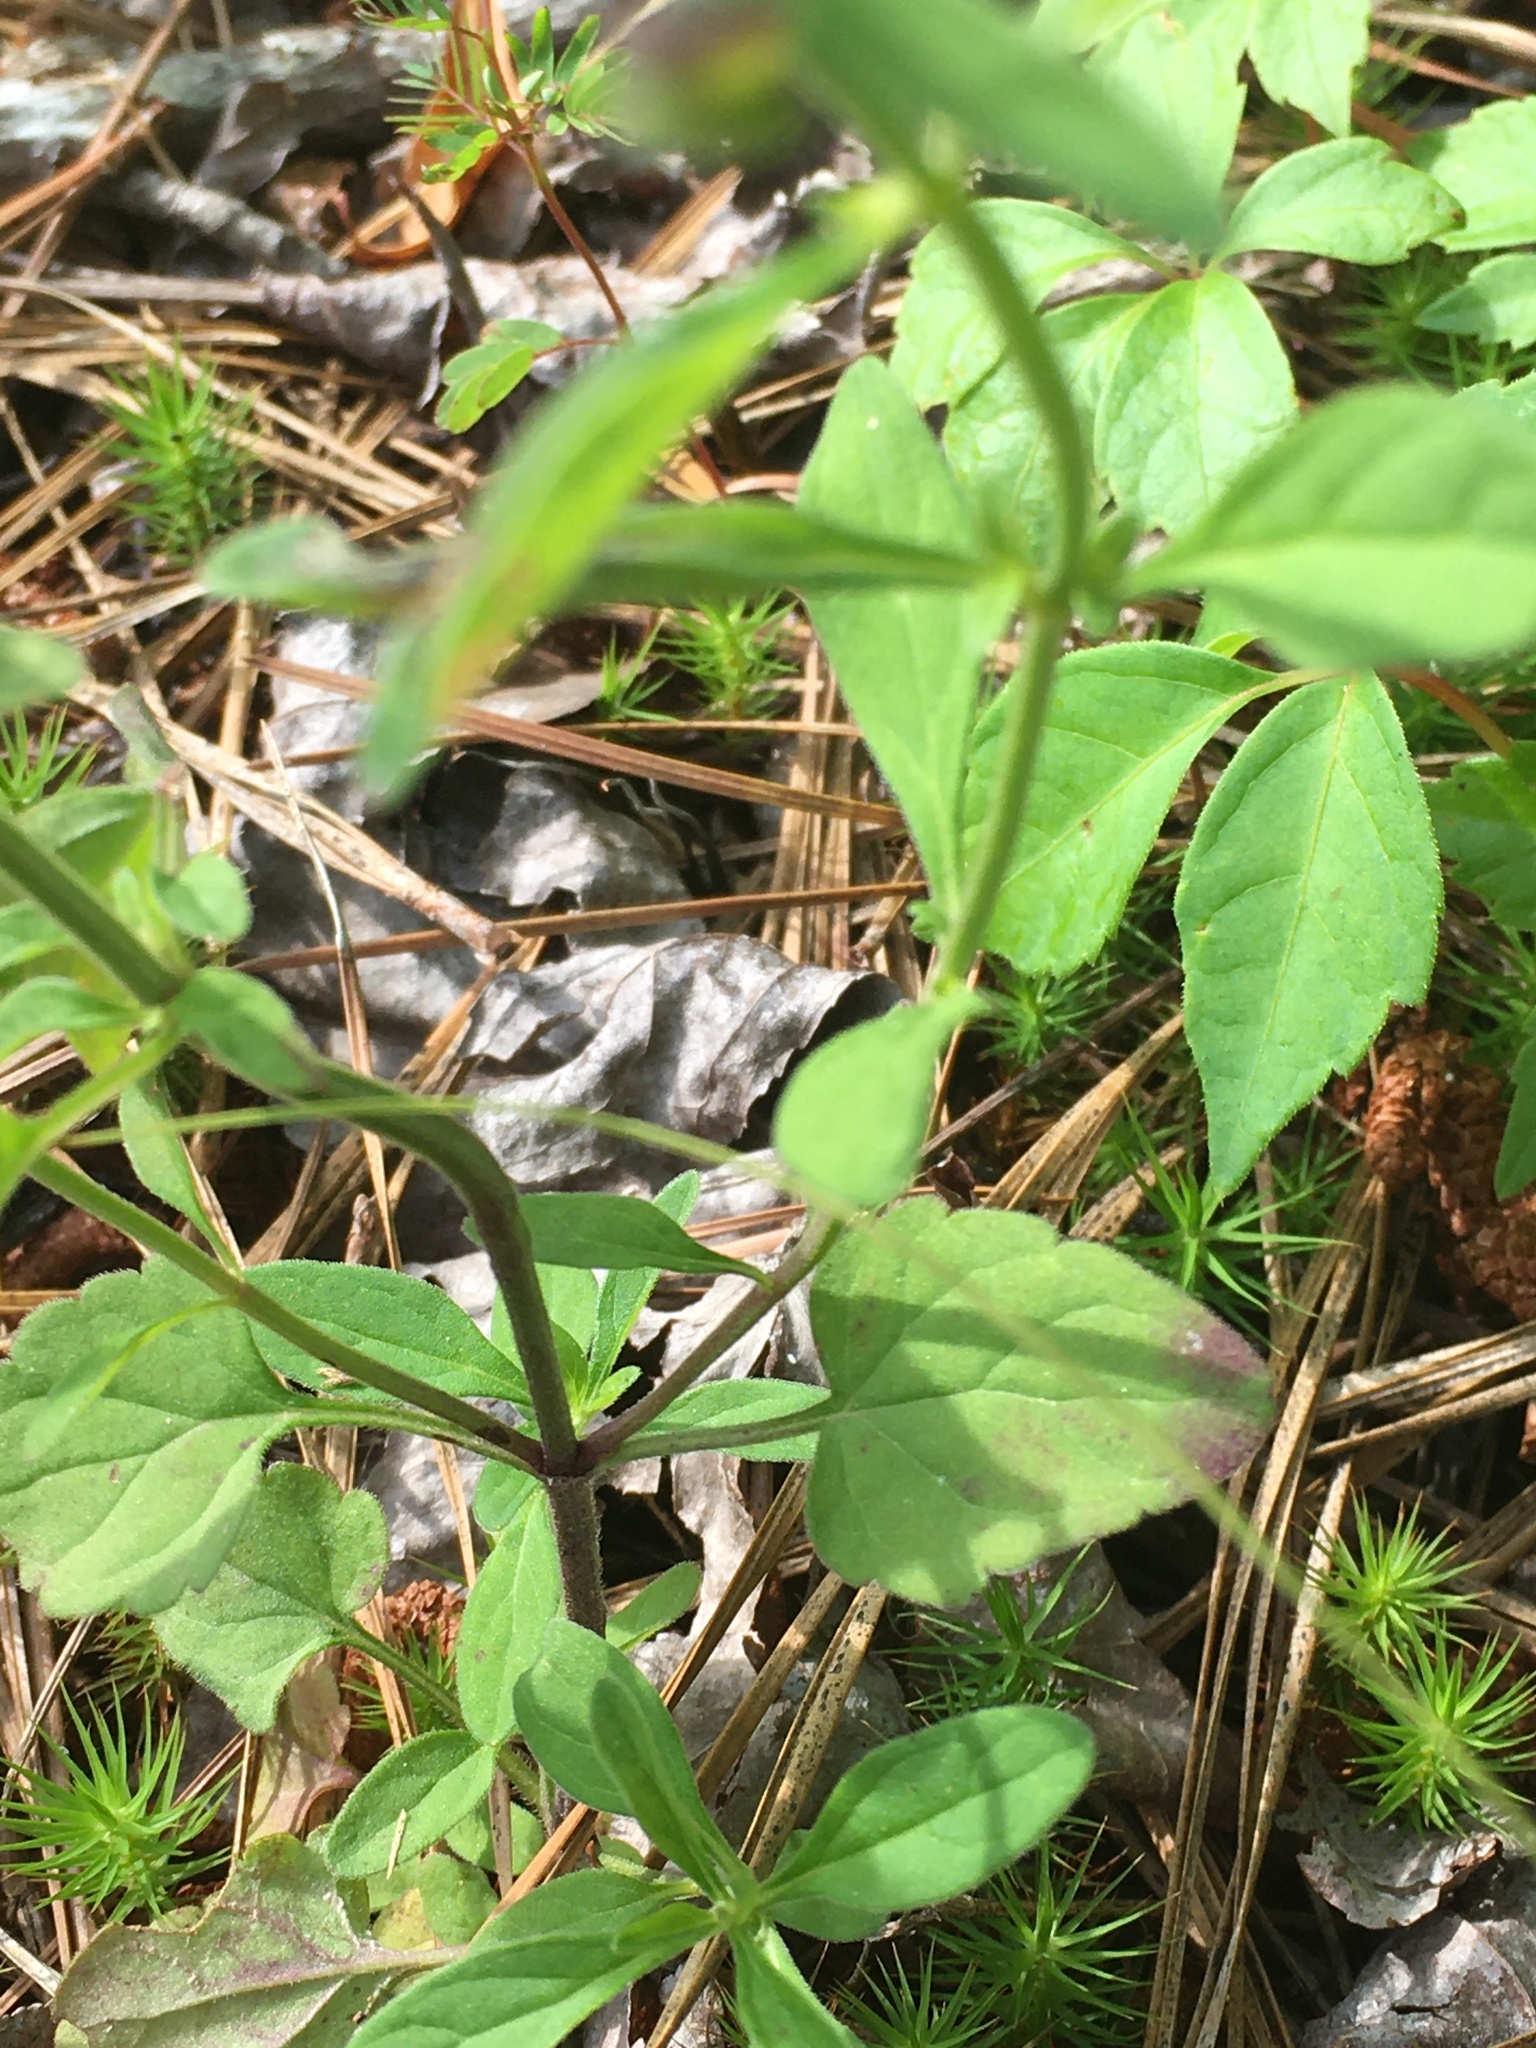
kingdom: Plantae
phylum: Tracheophyta
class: Magnoliopsida
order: Lamiales
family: Lamiaceae
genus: Scutellaria
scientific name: Scutellaria integrifolia
